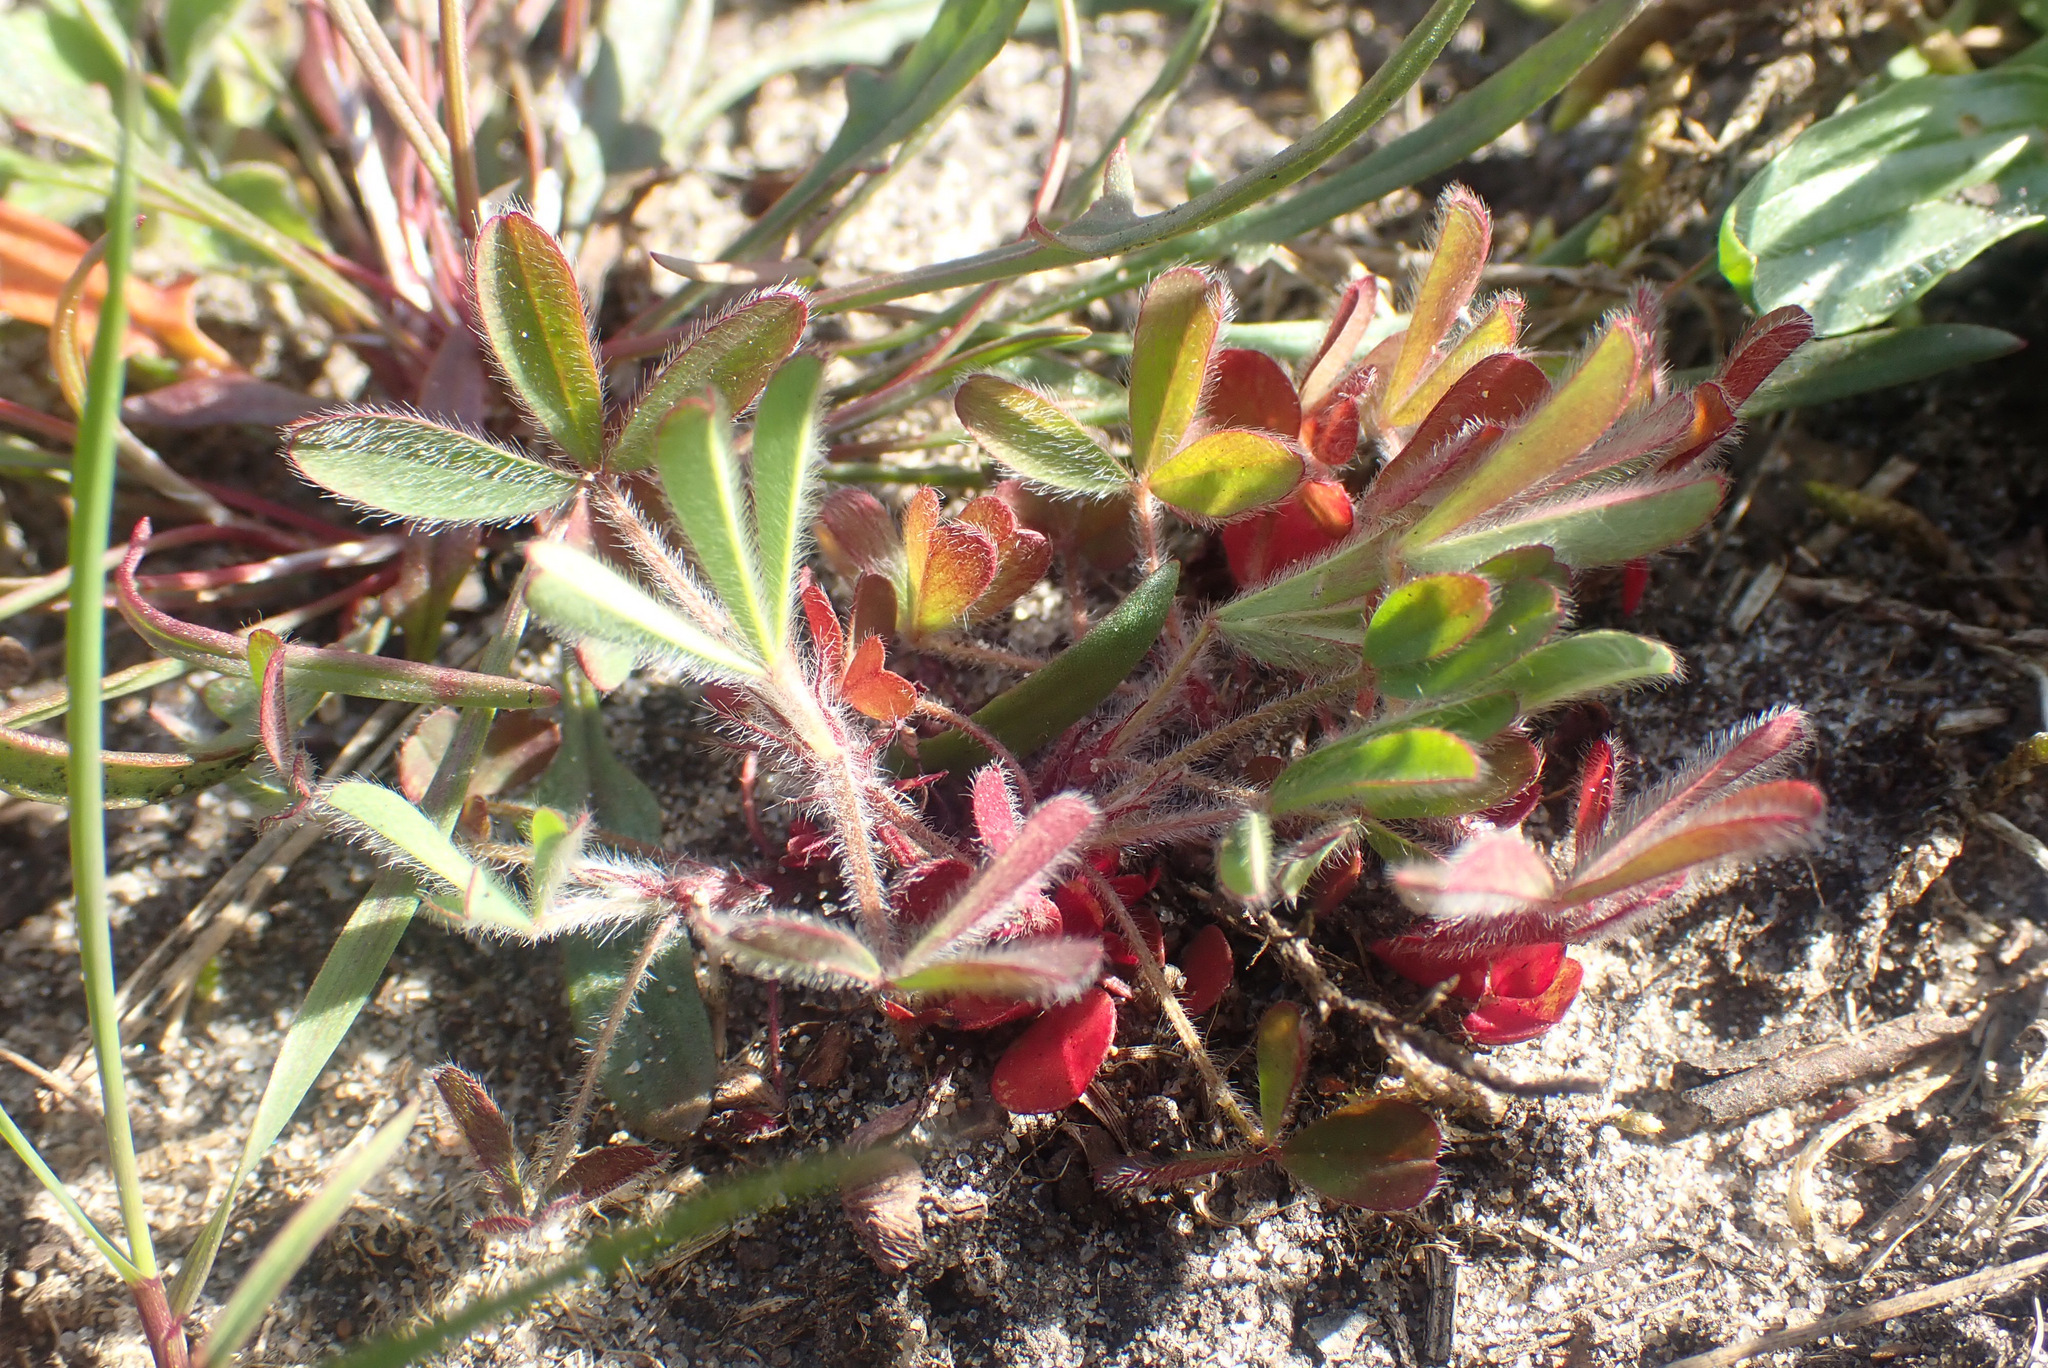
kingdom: Plantae
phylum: Tracheophyta
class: Magnoliopsida
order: Fabales
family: Fabaceae
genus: Trifolium
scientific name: Trifolium arvense
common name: Hare's-foot clover
